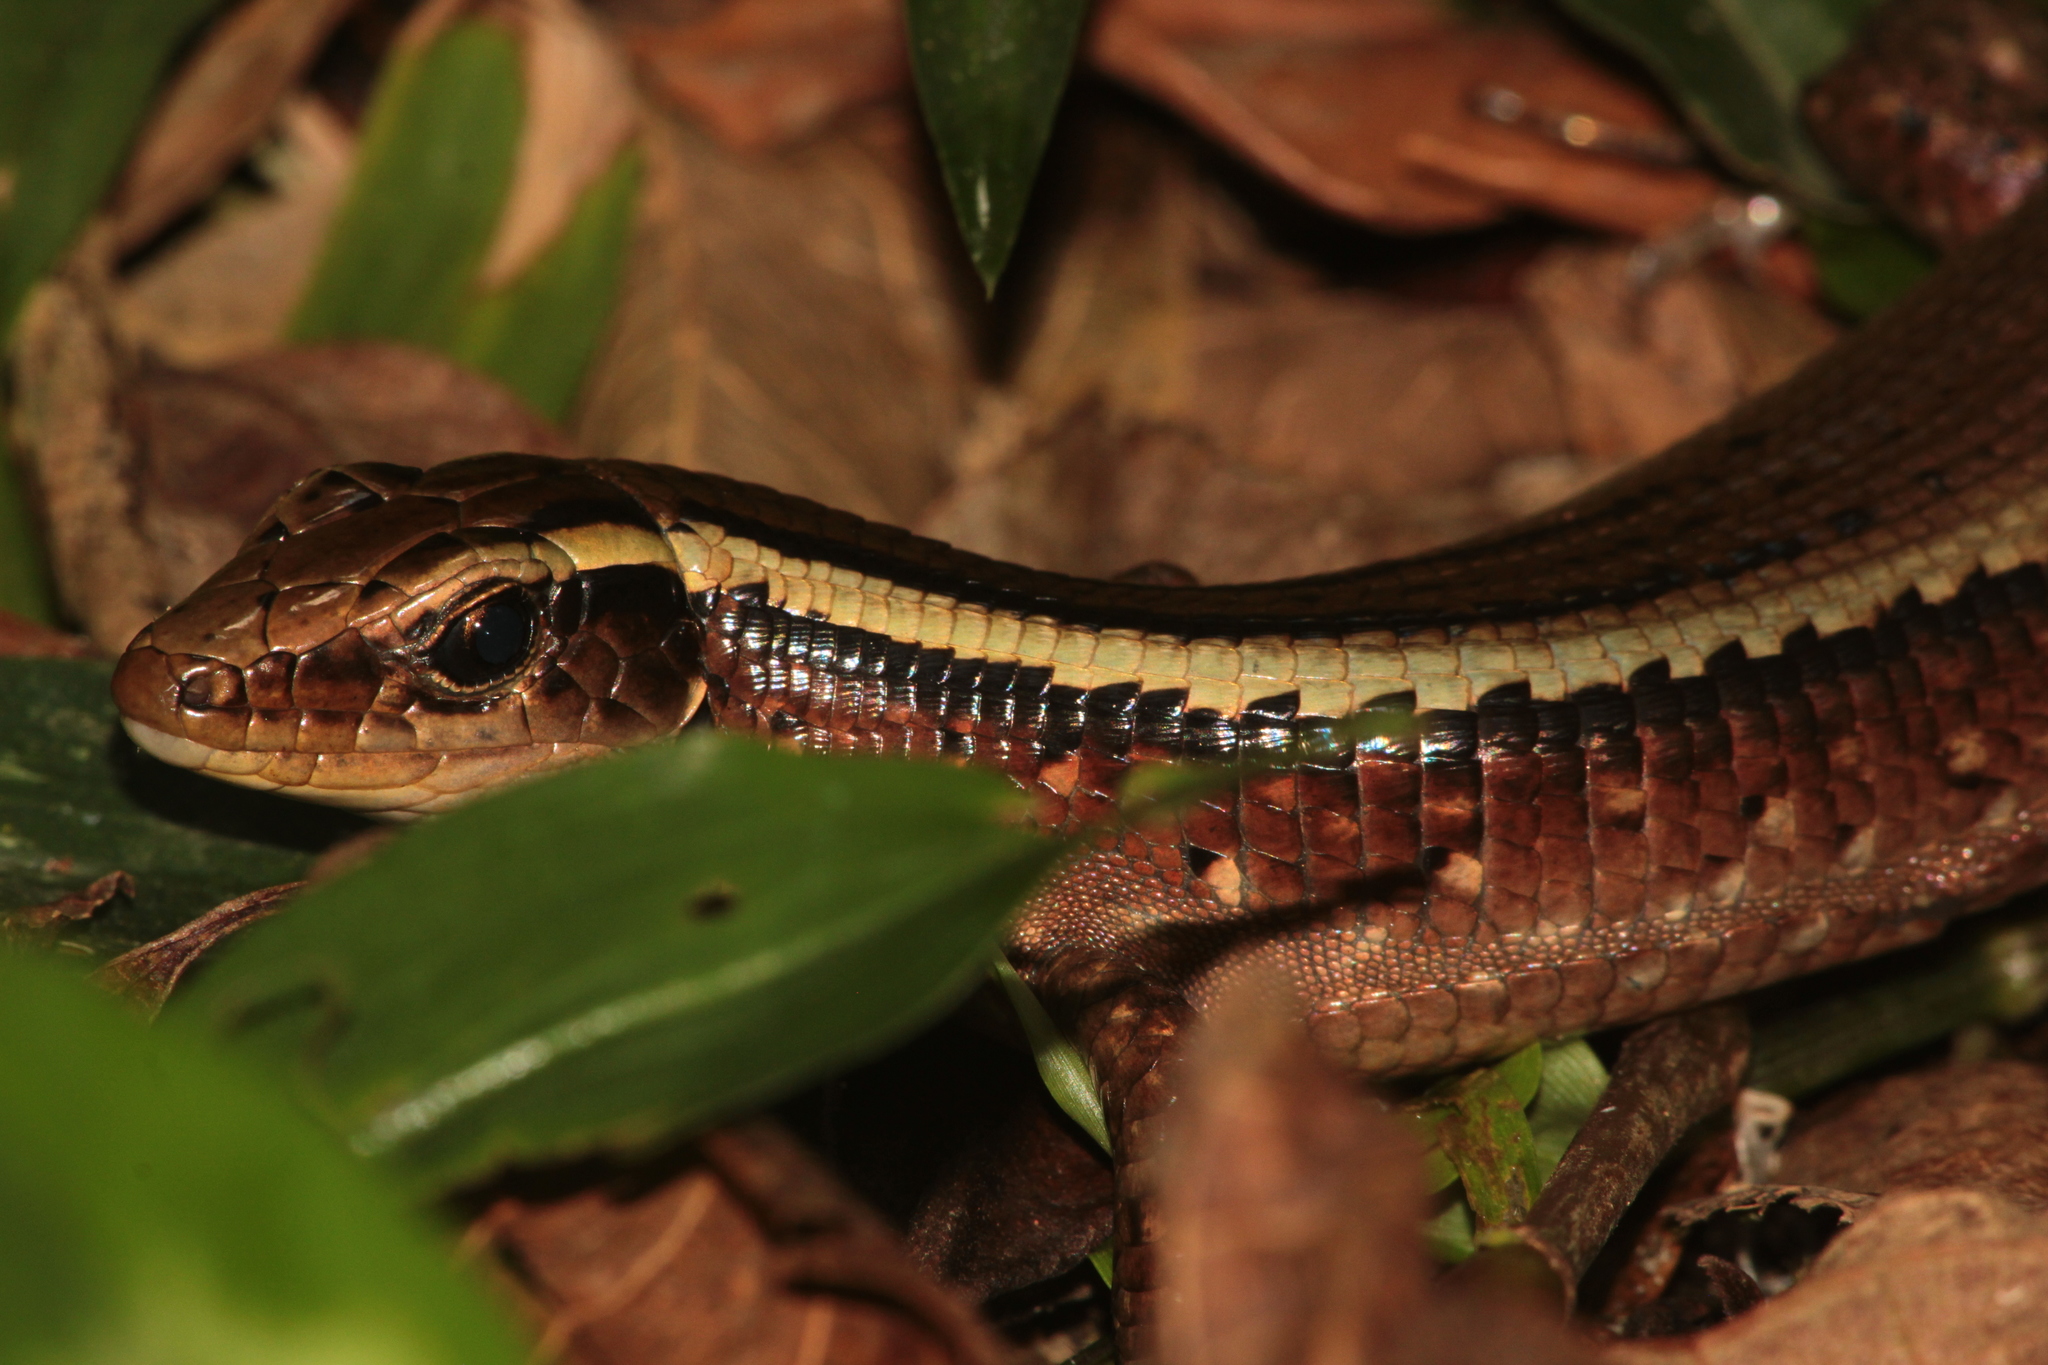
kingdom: Animalia
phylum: Chordata
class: Squamata
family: Gerrhosauridae
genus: Zonosaurus
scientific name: Zonosaurus madagascariensis
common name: Madagascar girdled lizard
